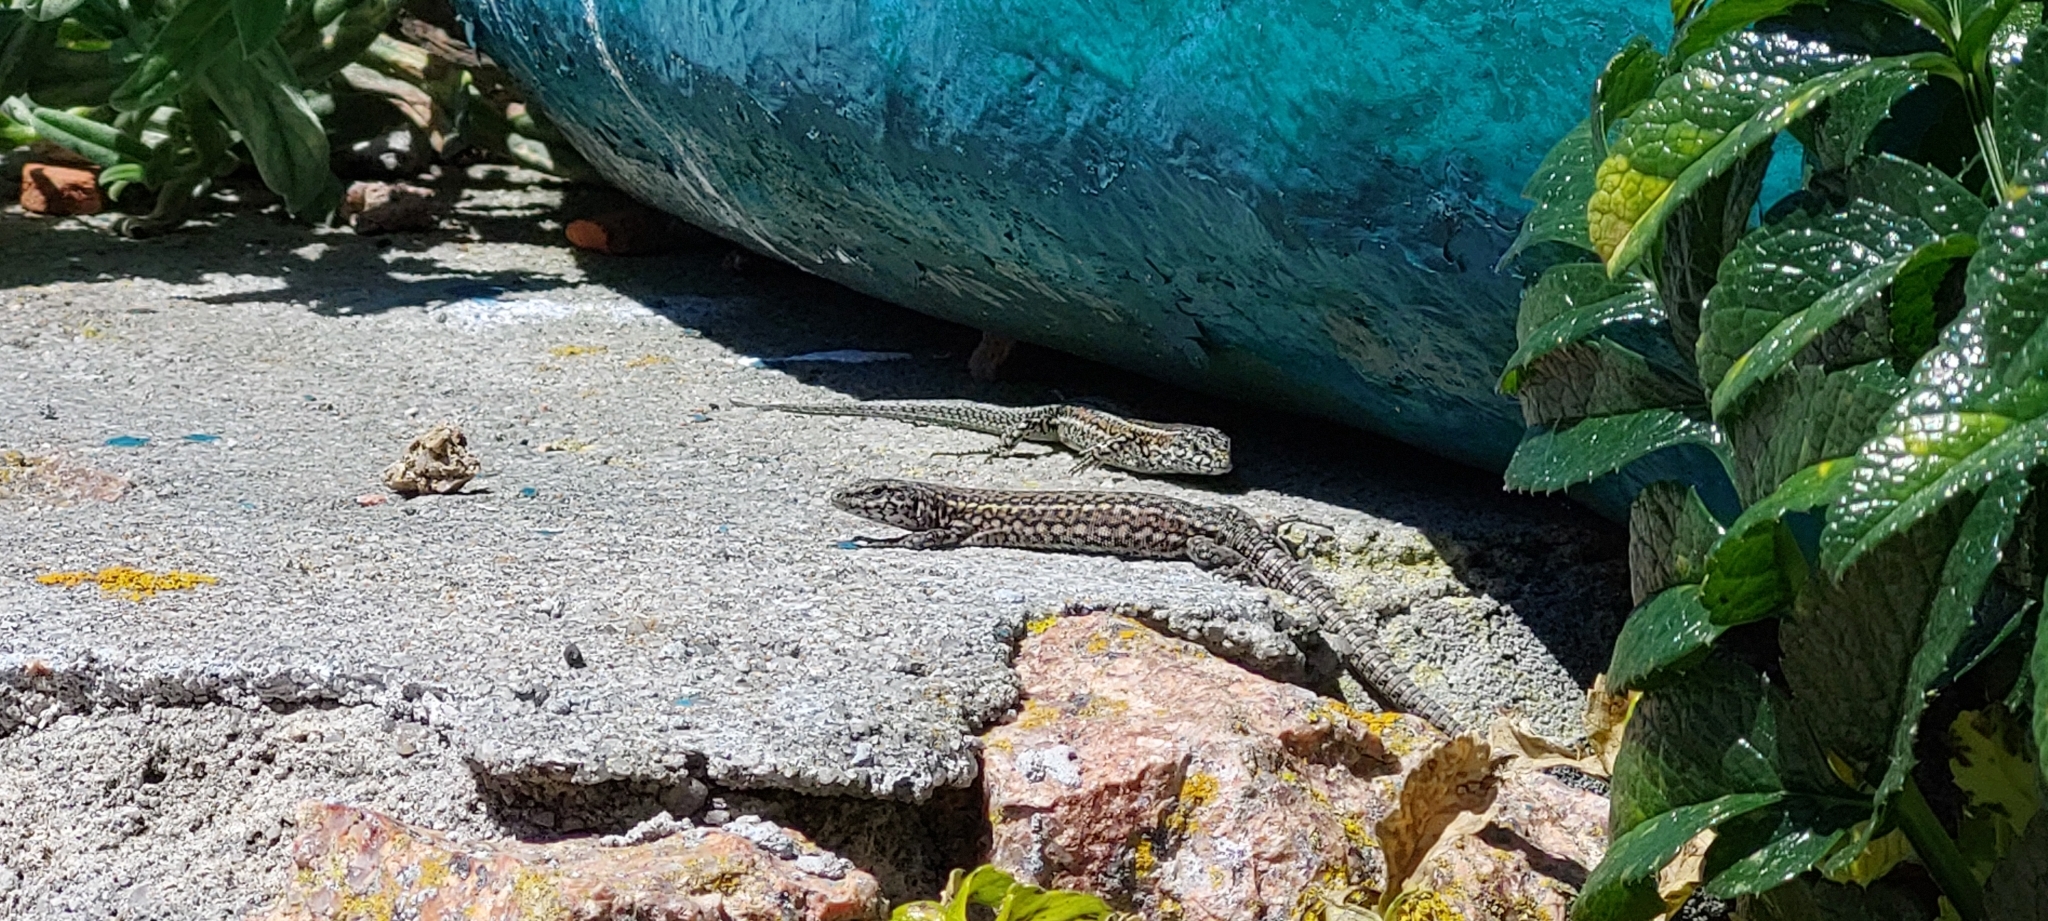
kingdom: Animalia
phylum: Chordata
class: Squamata
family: Lacertidae
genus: Podarcis
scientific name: Podarcis carbonelli
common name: Carbonelli's wall lizard
